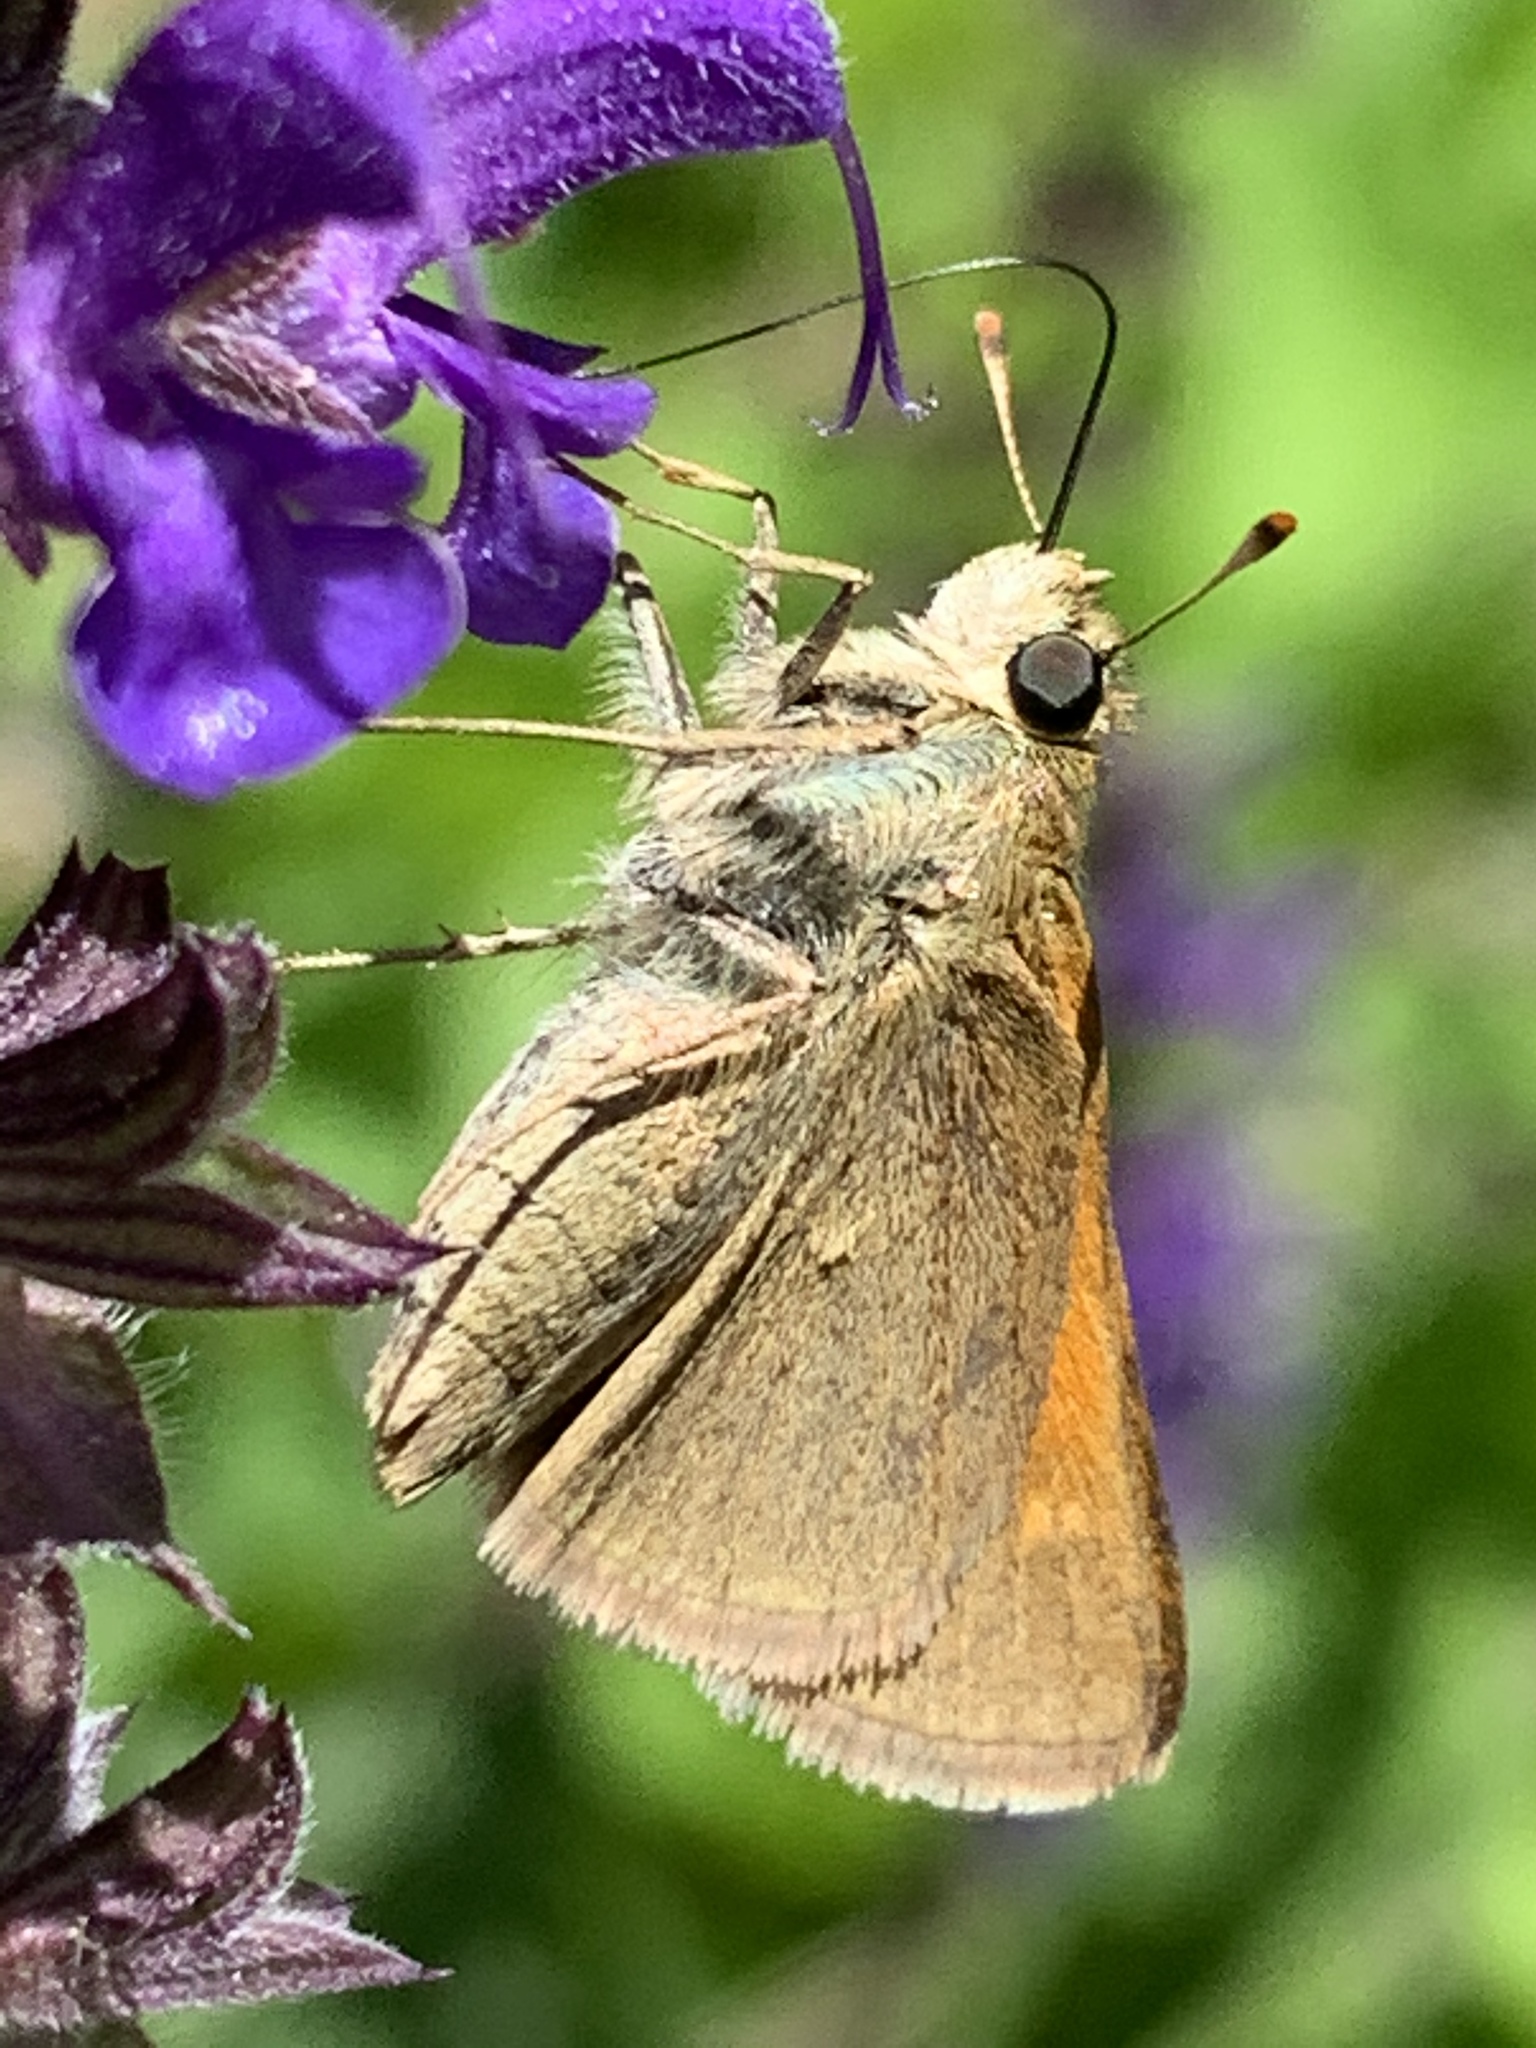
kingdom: Animalia
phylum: Arthropoda
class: Insecta
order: Lepidoptera
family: Hesperiidae
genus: Polites
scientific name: Polites themistocles
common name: Tawny-edged skipper
